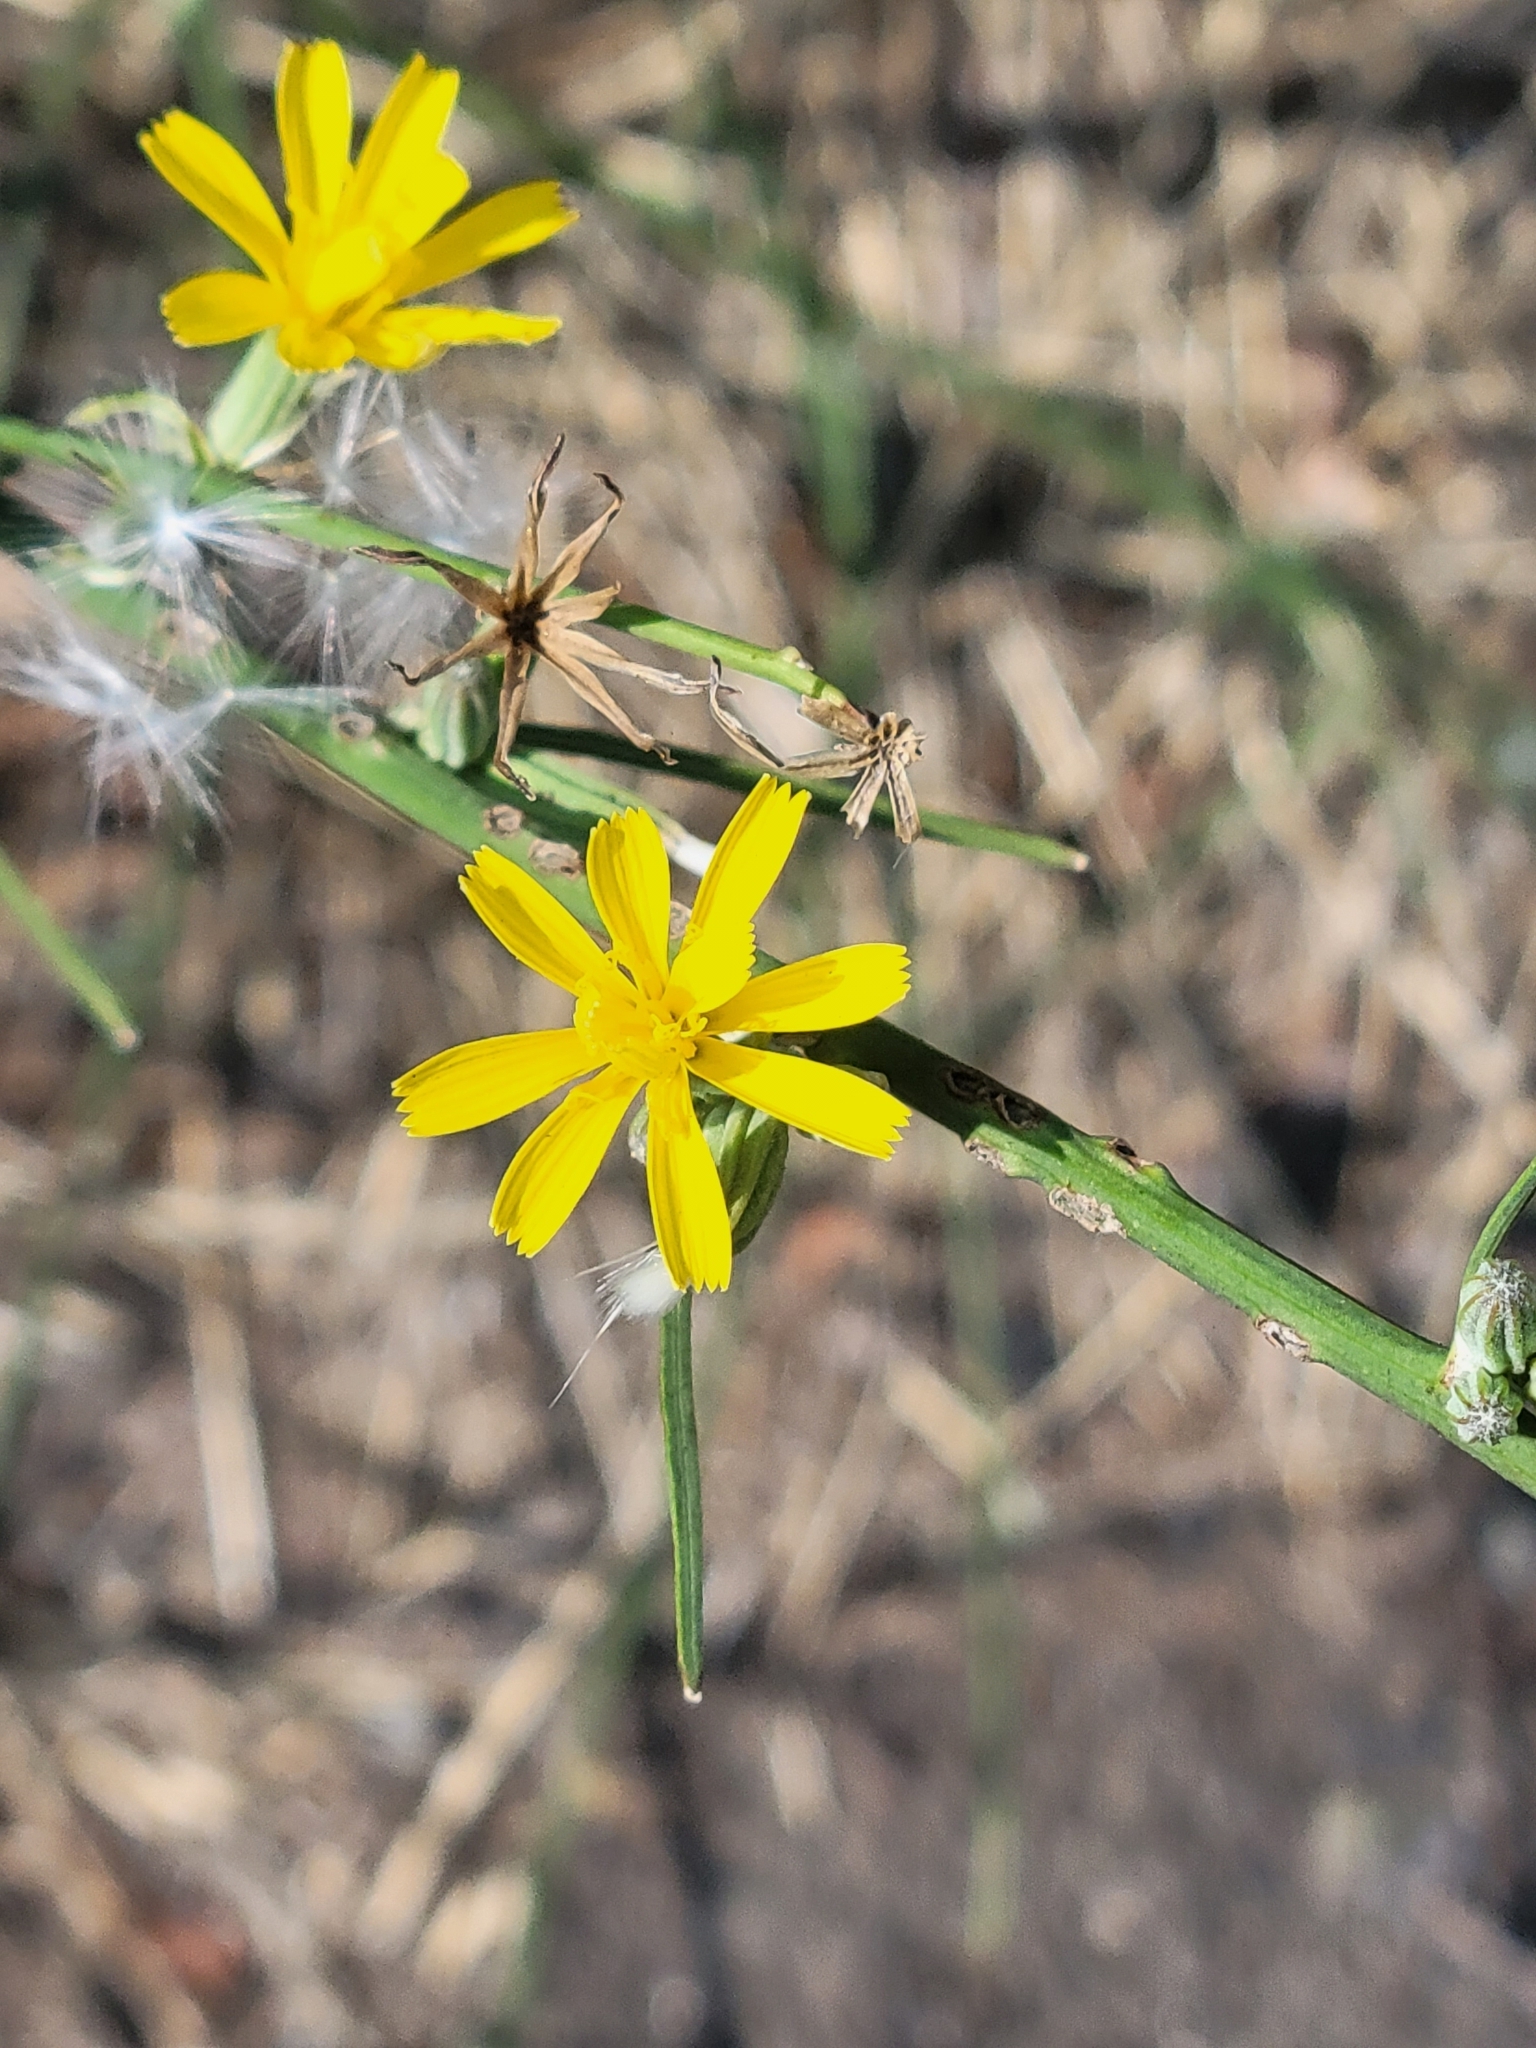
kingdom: Plantae
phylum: Tracheophyta
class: Magnoliopsida
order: Asterales
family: Asteraceae
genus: Chondrilla
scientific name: Chondrilla juncea
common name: Skeleton weed
